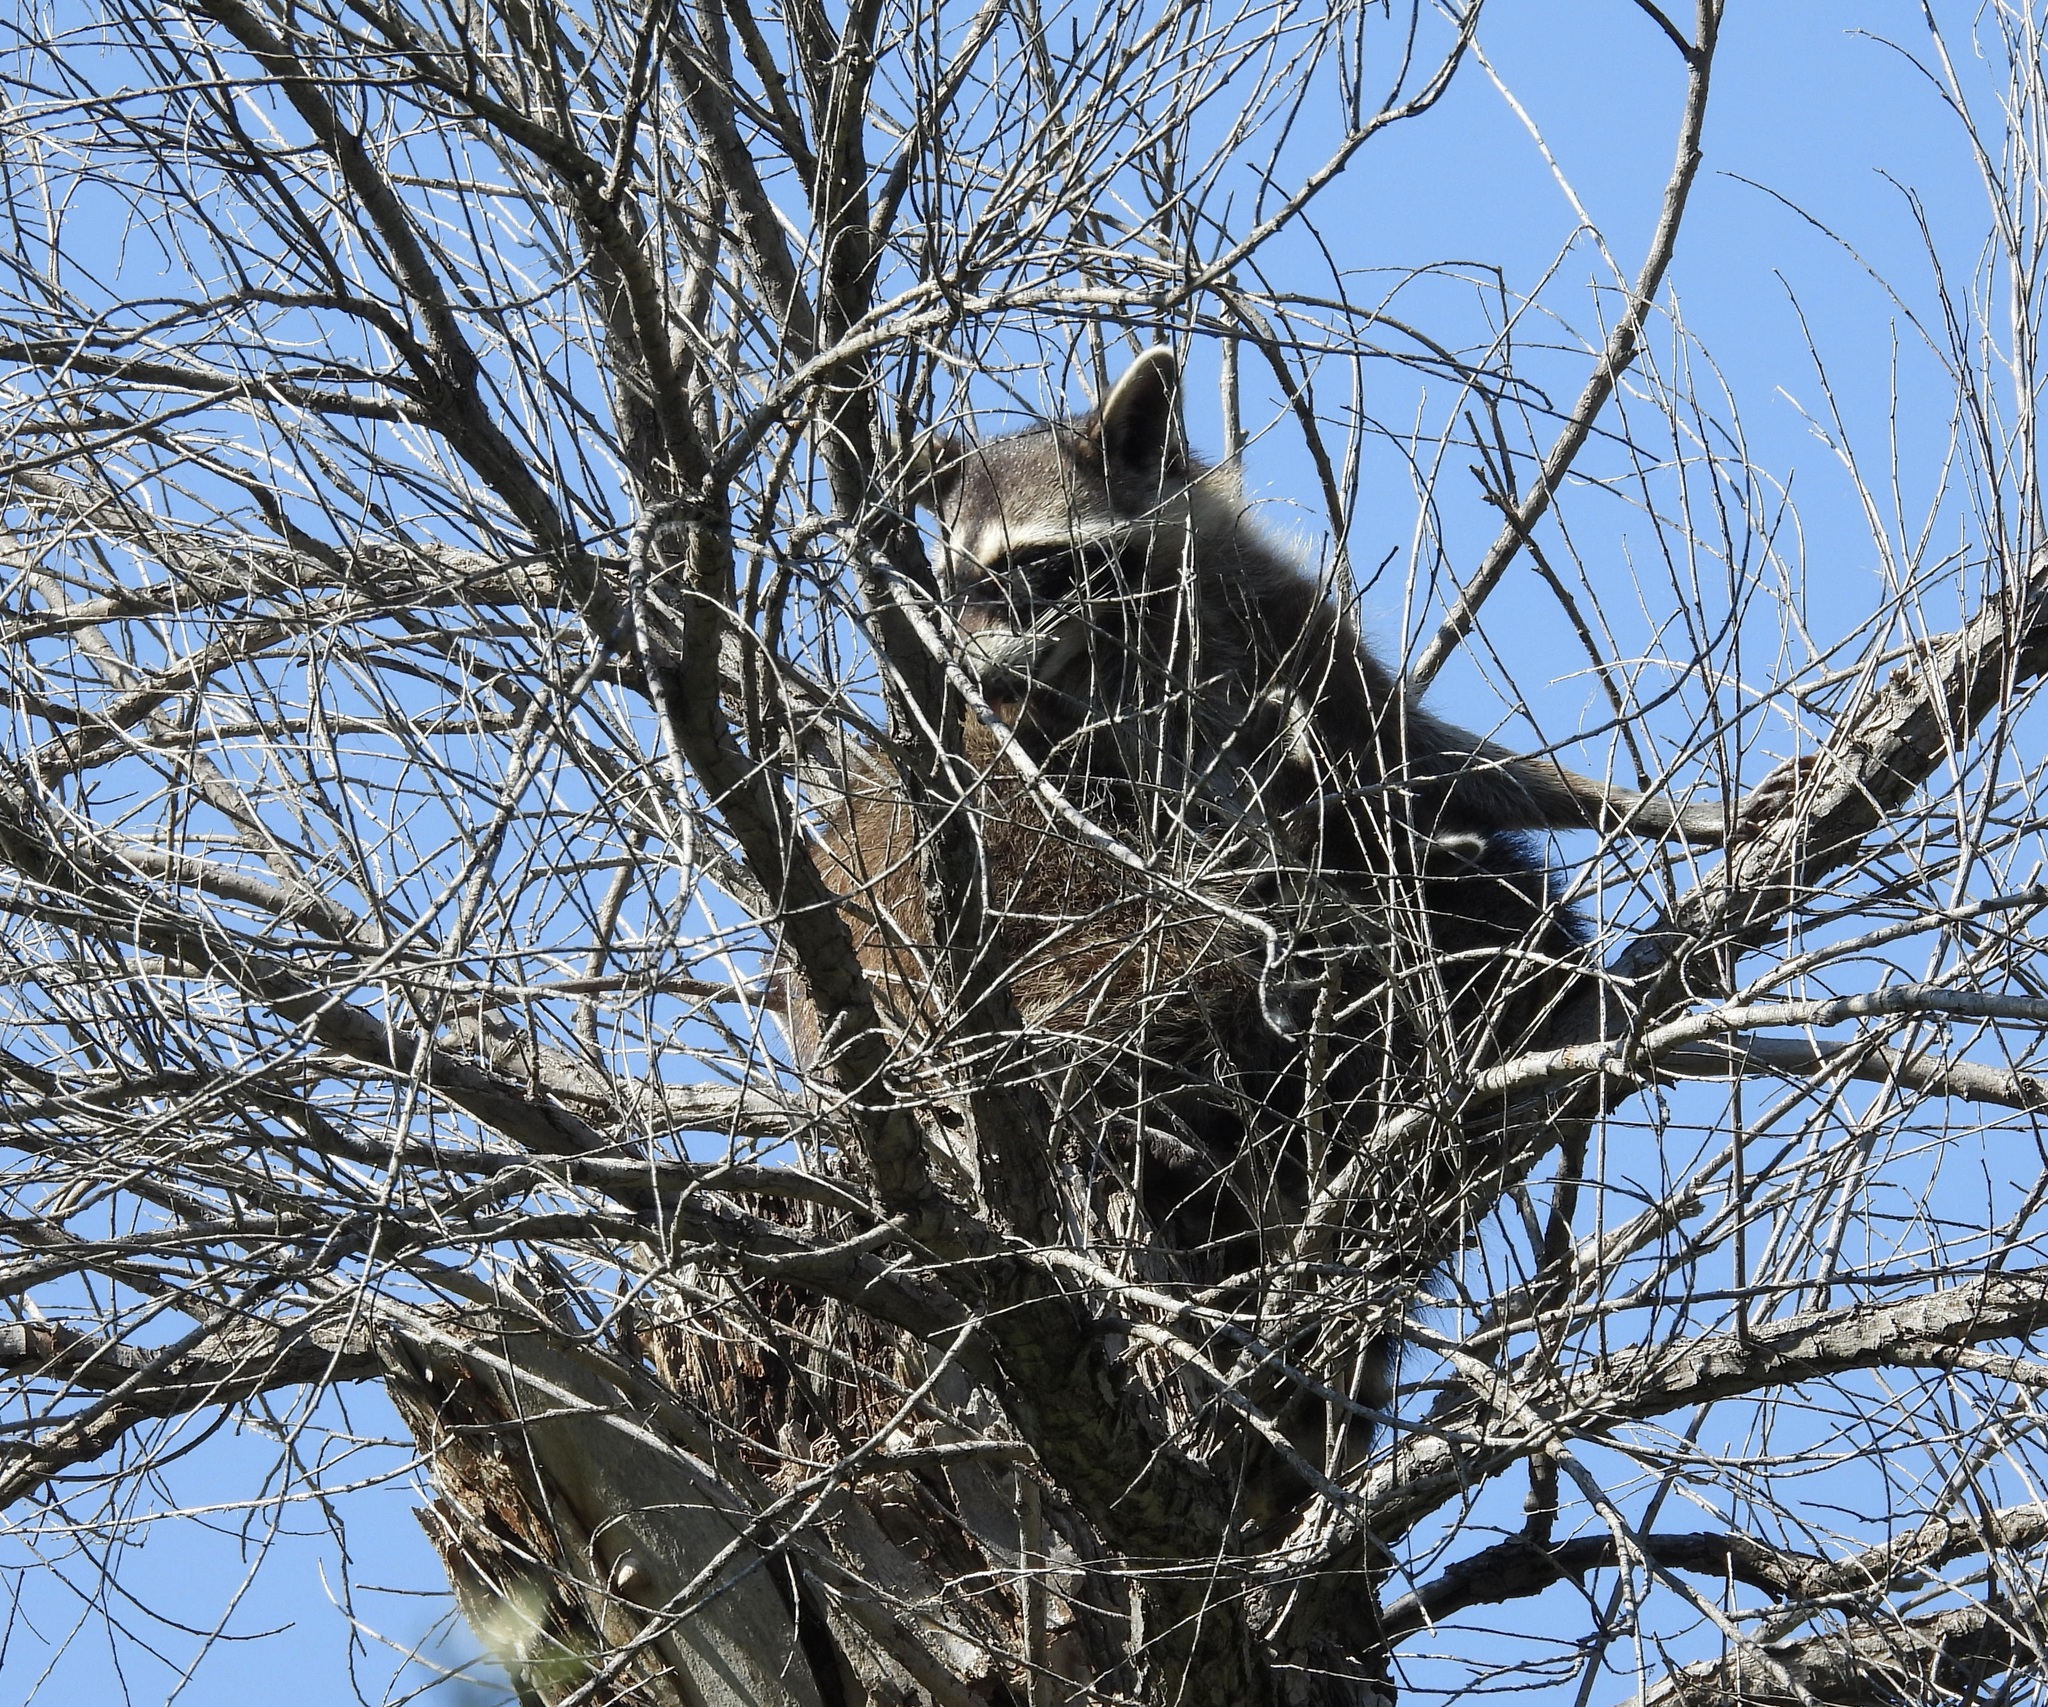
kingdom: Animalia
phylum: Chordata
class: Mammalia
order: Carnivora
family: Procyonidae
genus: Procyon
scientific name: Procyon lotor
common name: Raccoon
